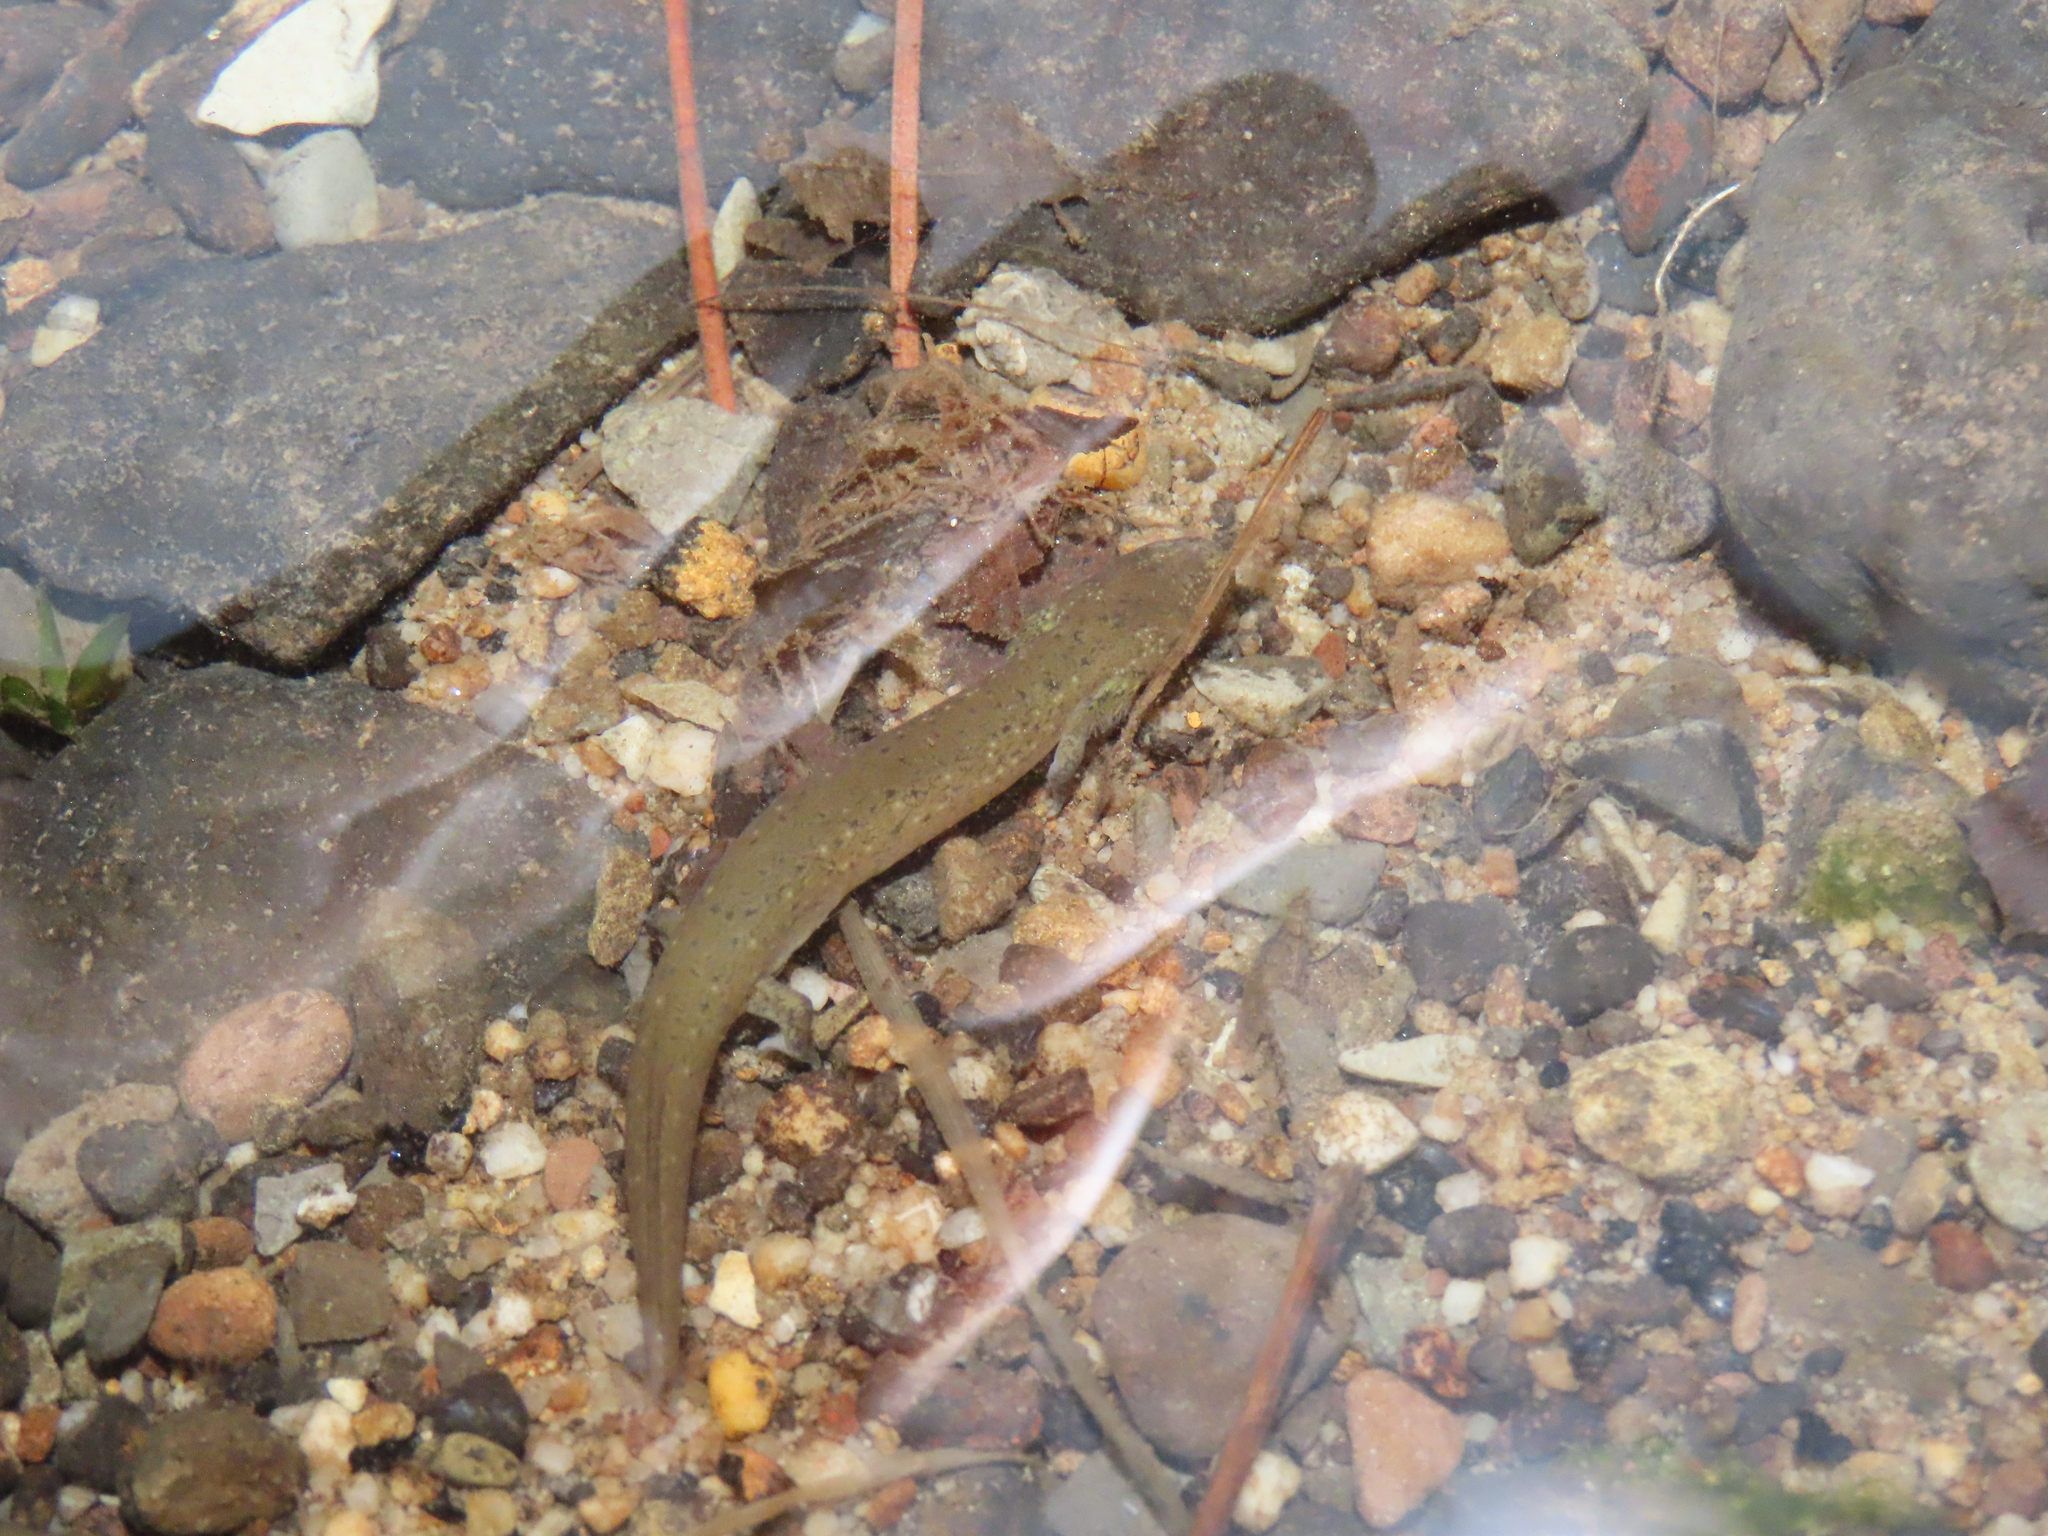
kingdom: Animalia
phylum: Chordata
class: Amphibia
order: Caudata
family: Plethodontidae
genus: Pseudotriton
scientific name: Pseudotriton ruber
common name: Red salamander
